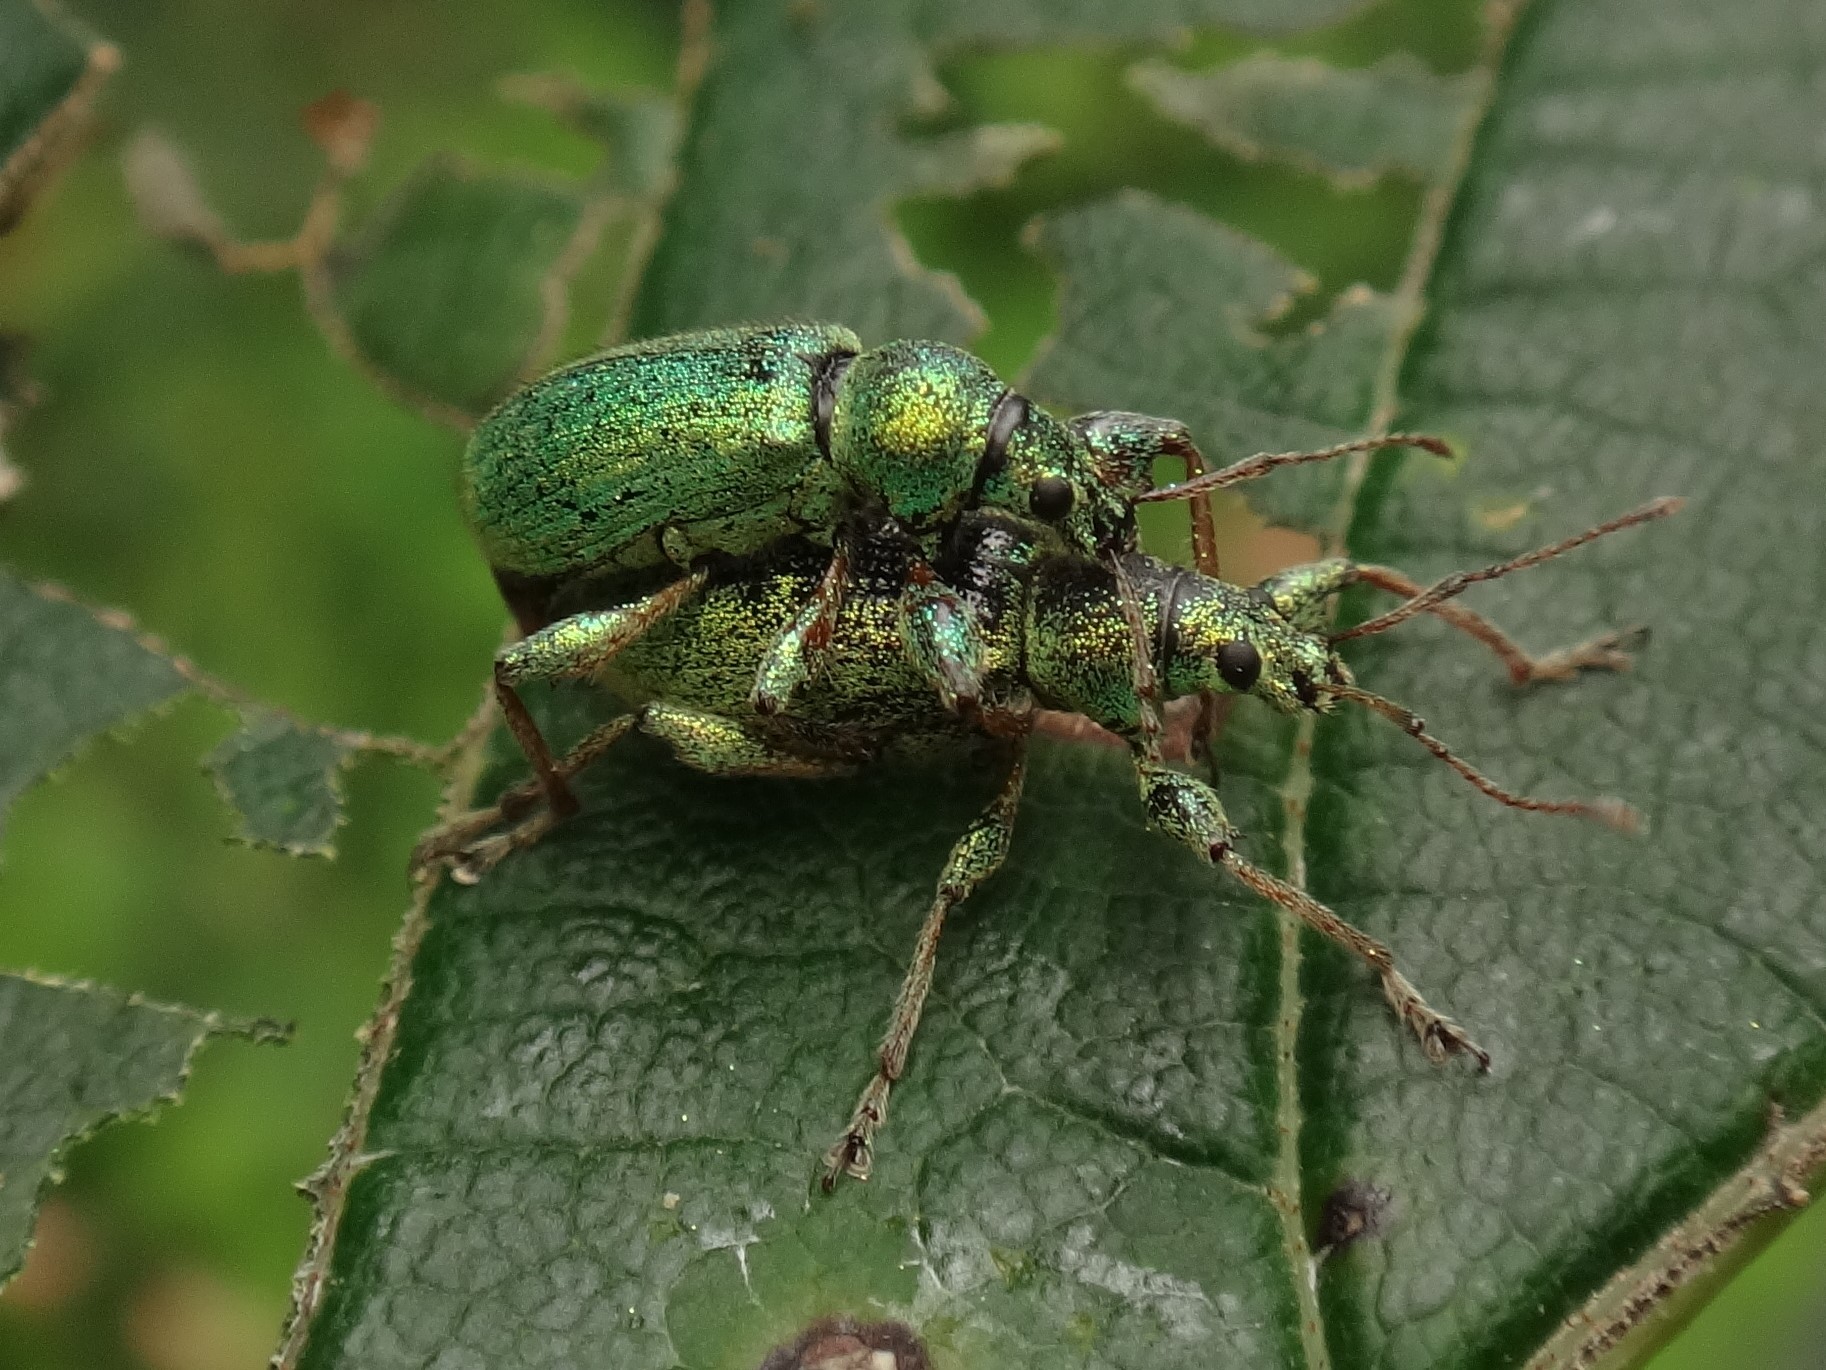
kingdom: Animalia
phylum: Arthropoda
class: Insecta
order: Coleoptera
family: Curculionidae
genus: Phyllobius
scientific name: Phyllobius arborator
